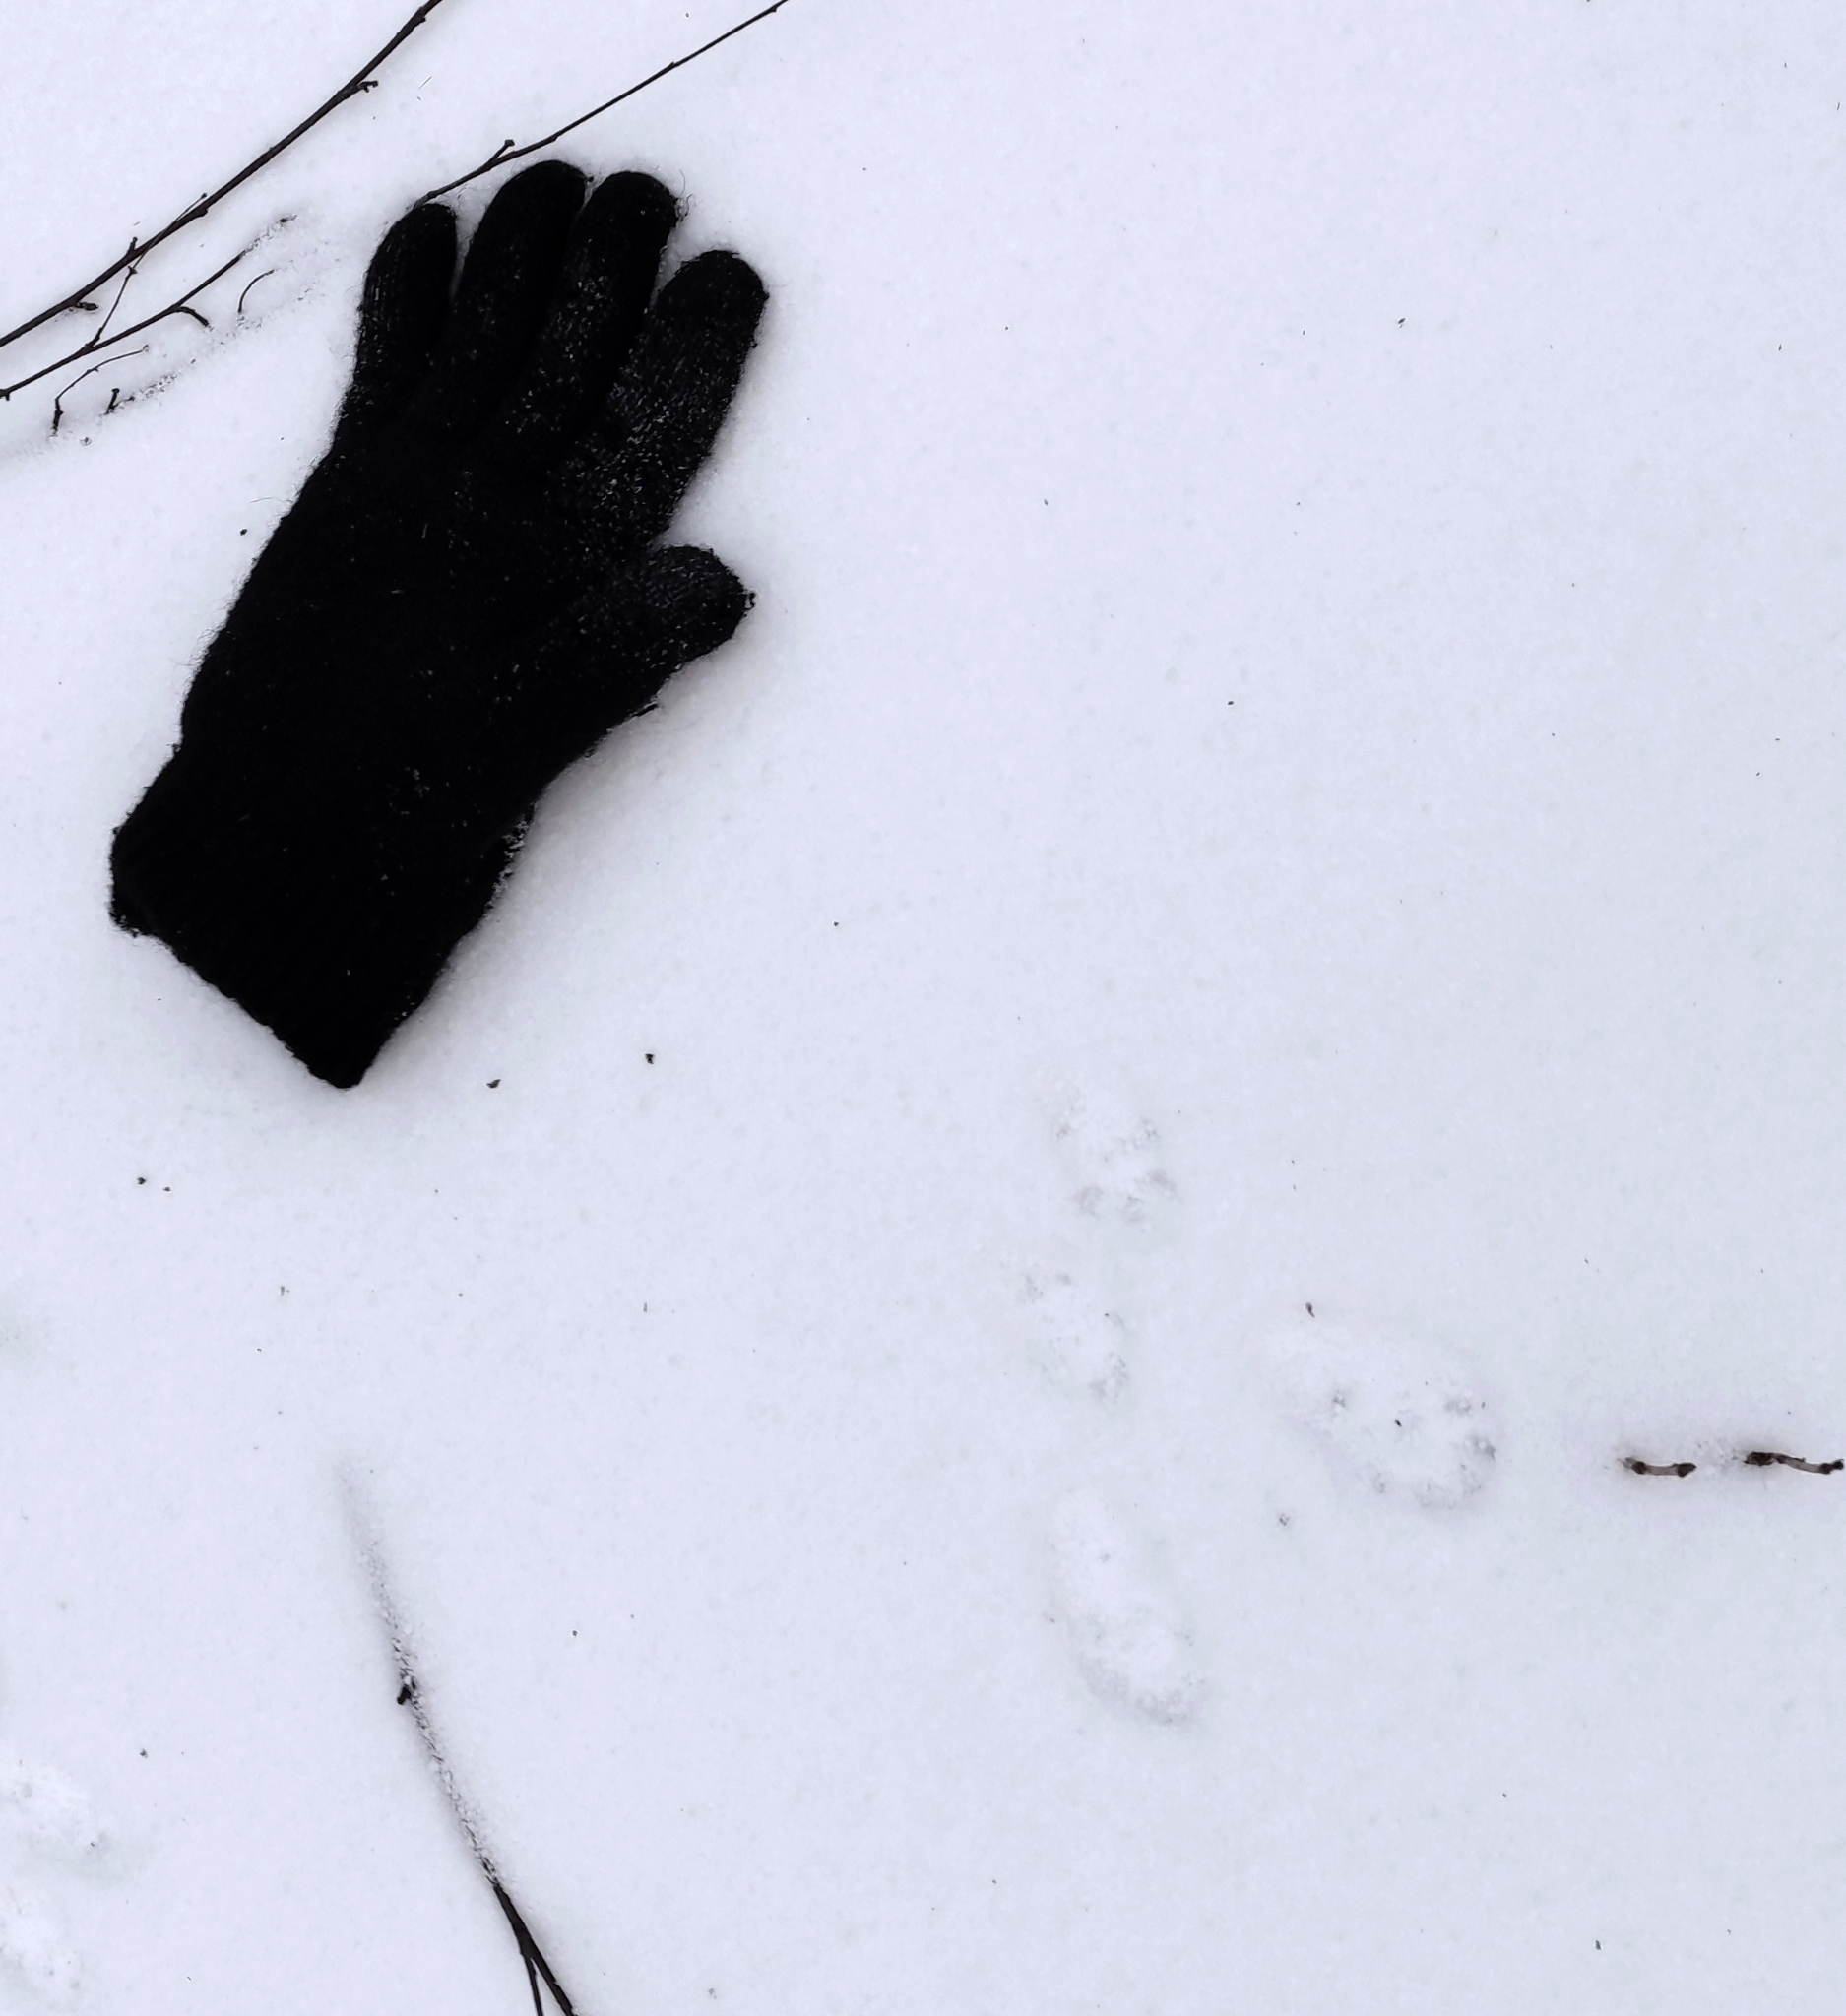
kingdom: Animalia
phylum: Chordata
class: Mammalia
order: Rodentia
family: Sciuridae
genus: Sciurus
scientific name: Sciurus vulgaris
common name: Eurasian red squirrel
